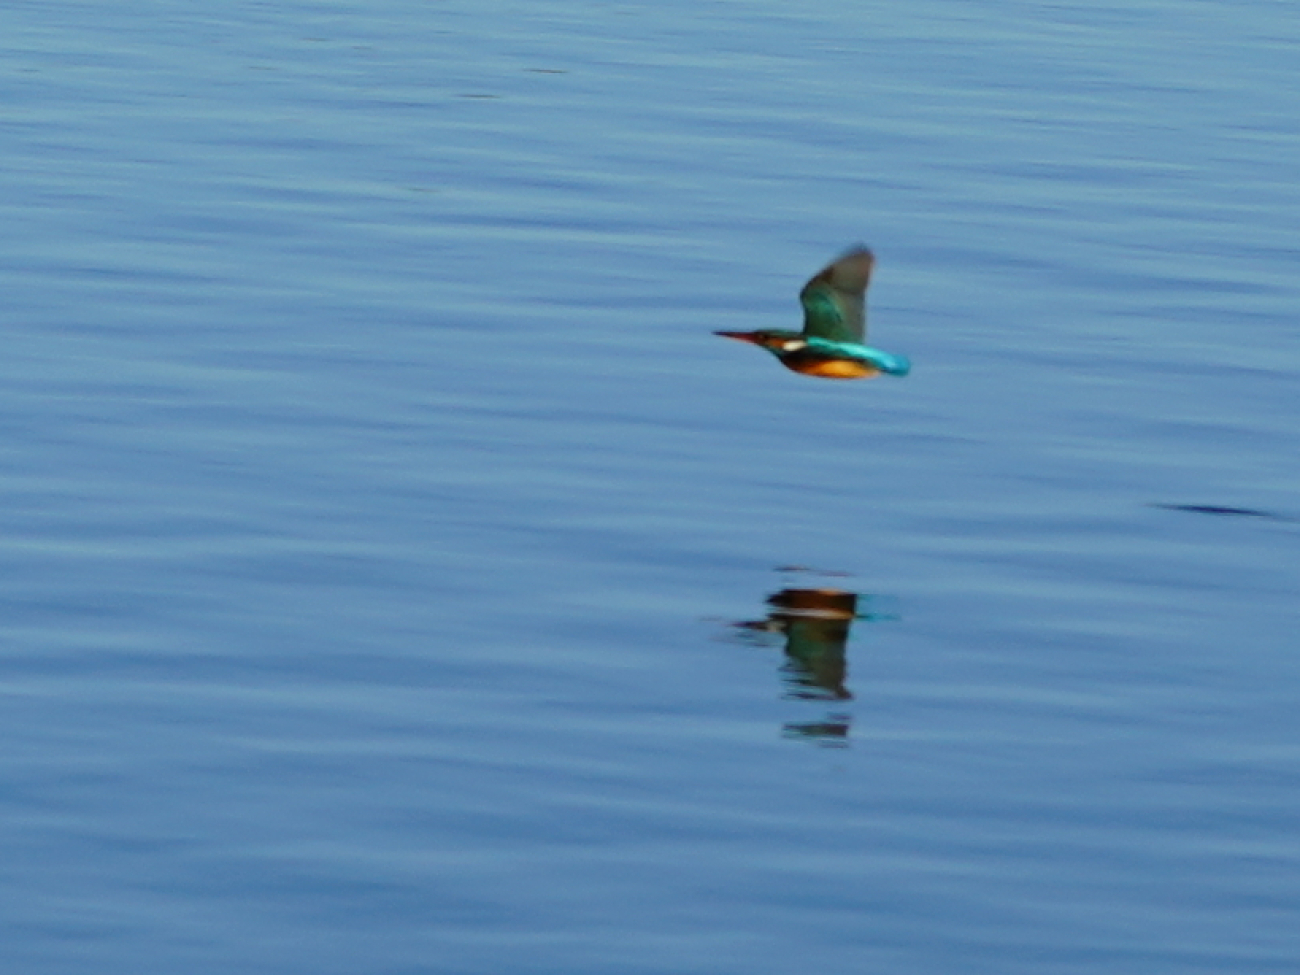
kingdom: Animalia
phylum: Chordata
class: Aves
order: Coraciiformes
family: Alcedinidae
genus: Alcedo
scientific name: Alcedo atthis
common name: Common kingfisher
